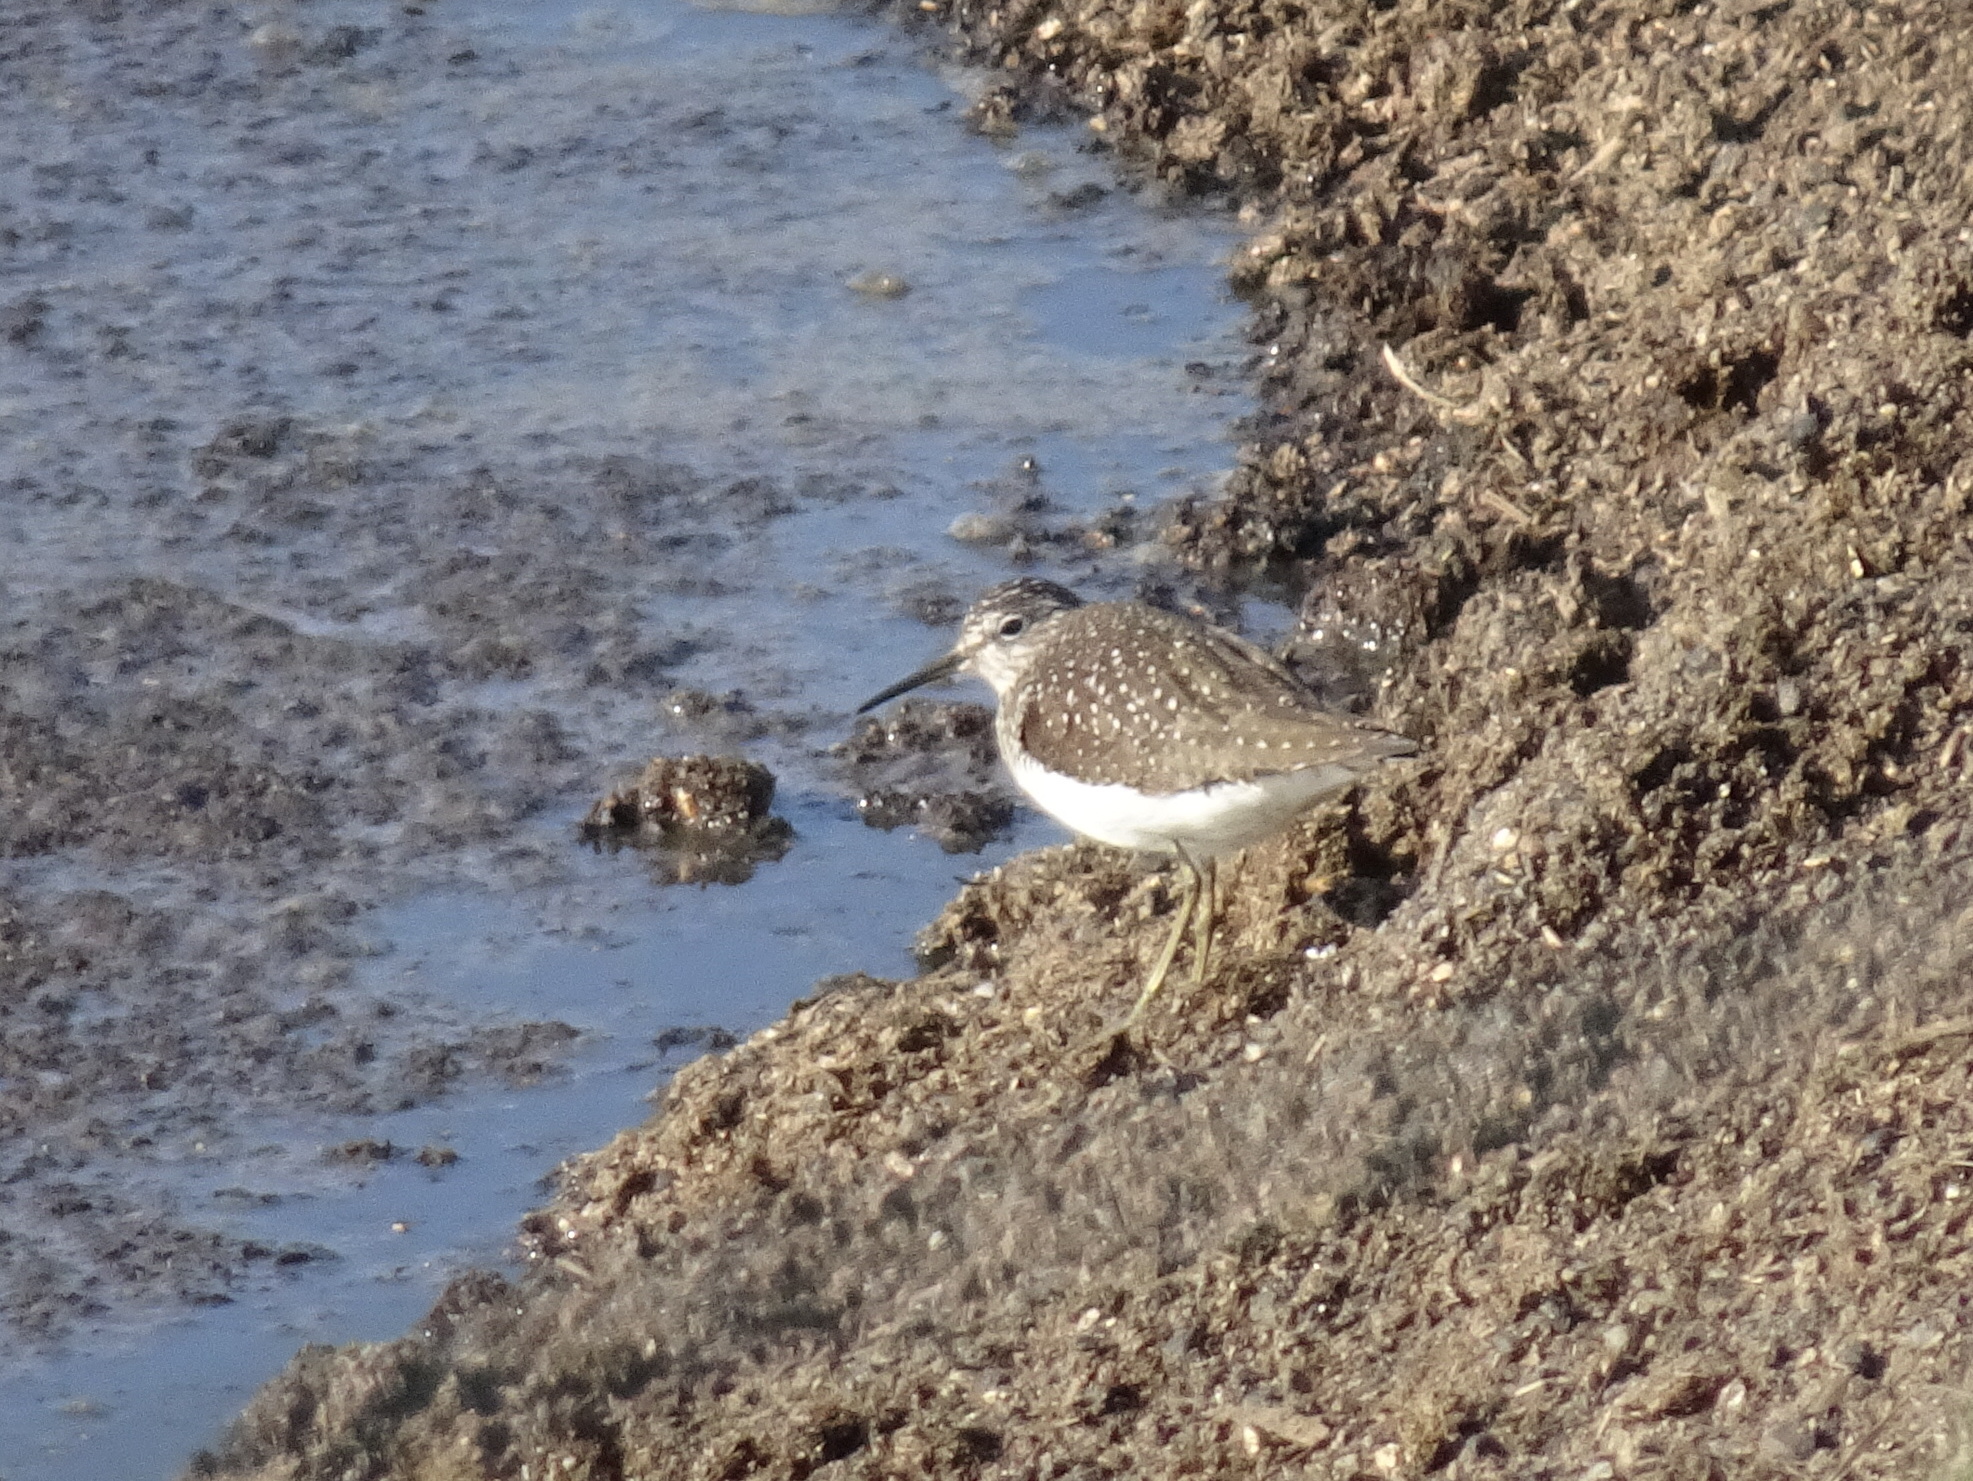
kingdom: Animalia
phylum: Chordata
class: Aves
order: Charadriiformes
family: Scolopacidae
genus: Tringa
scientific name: Tringa solitaria
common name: Solitary sandpiper
